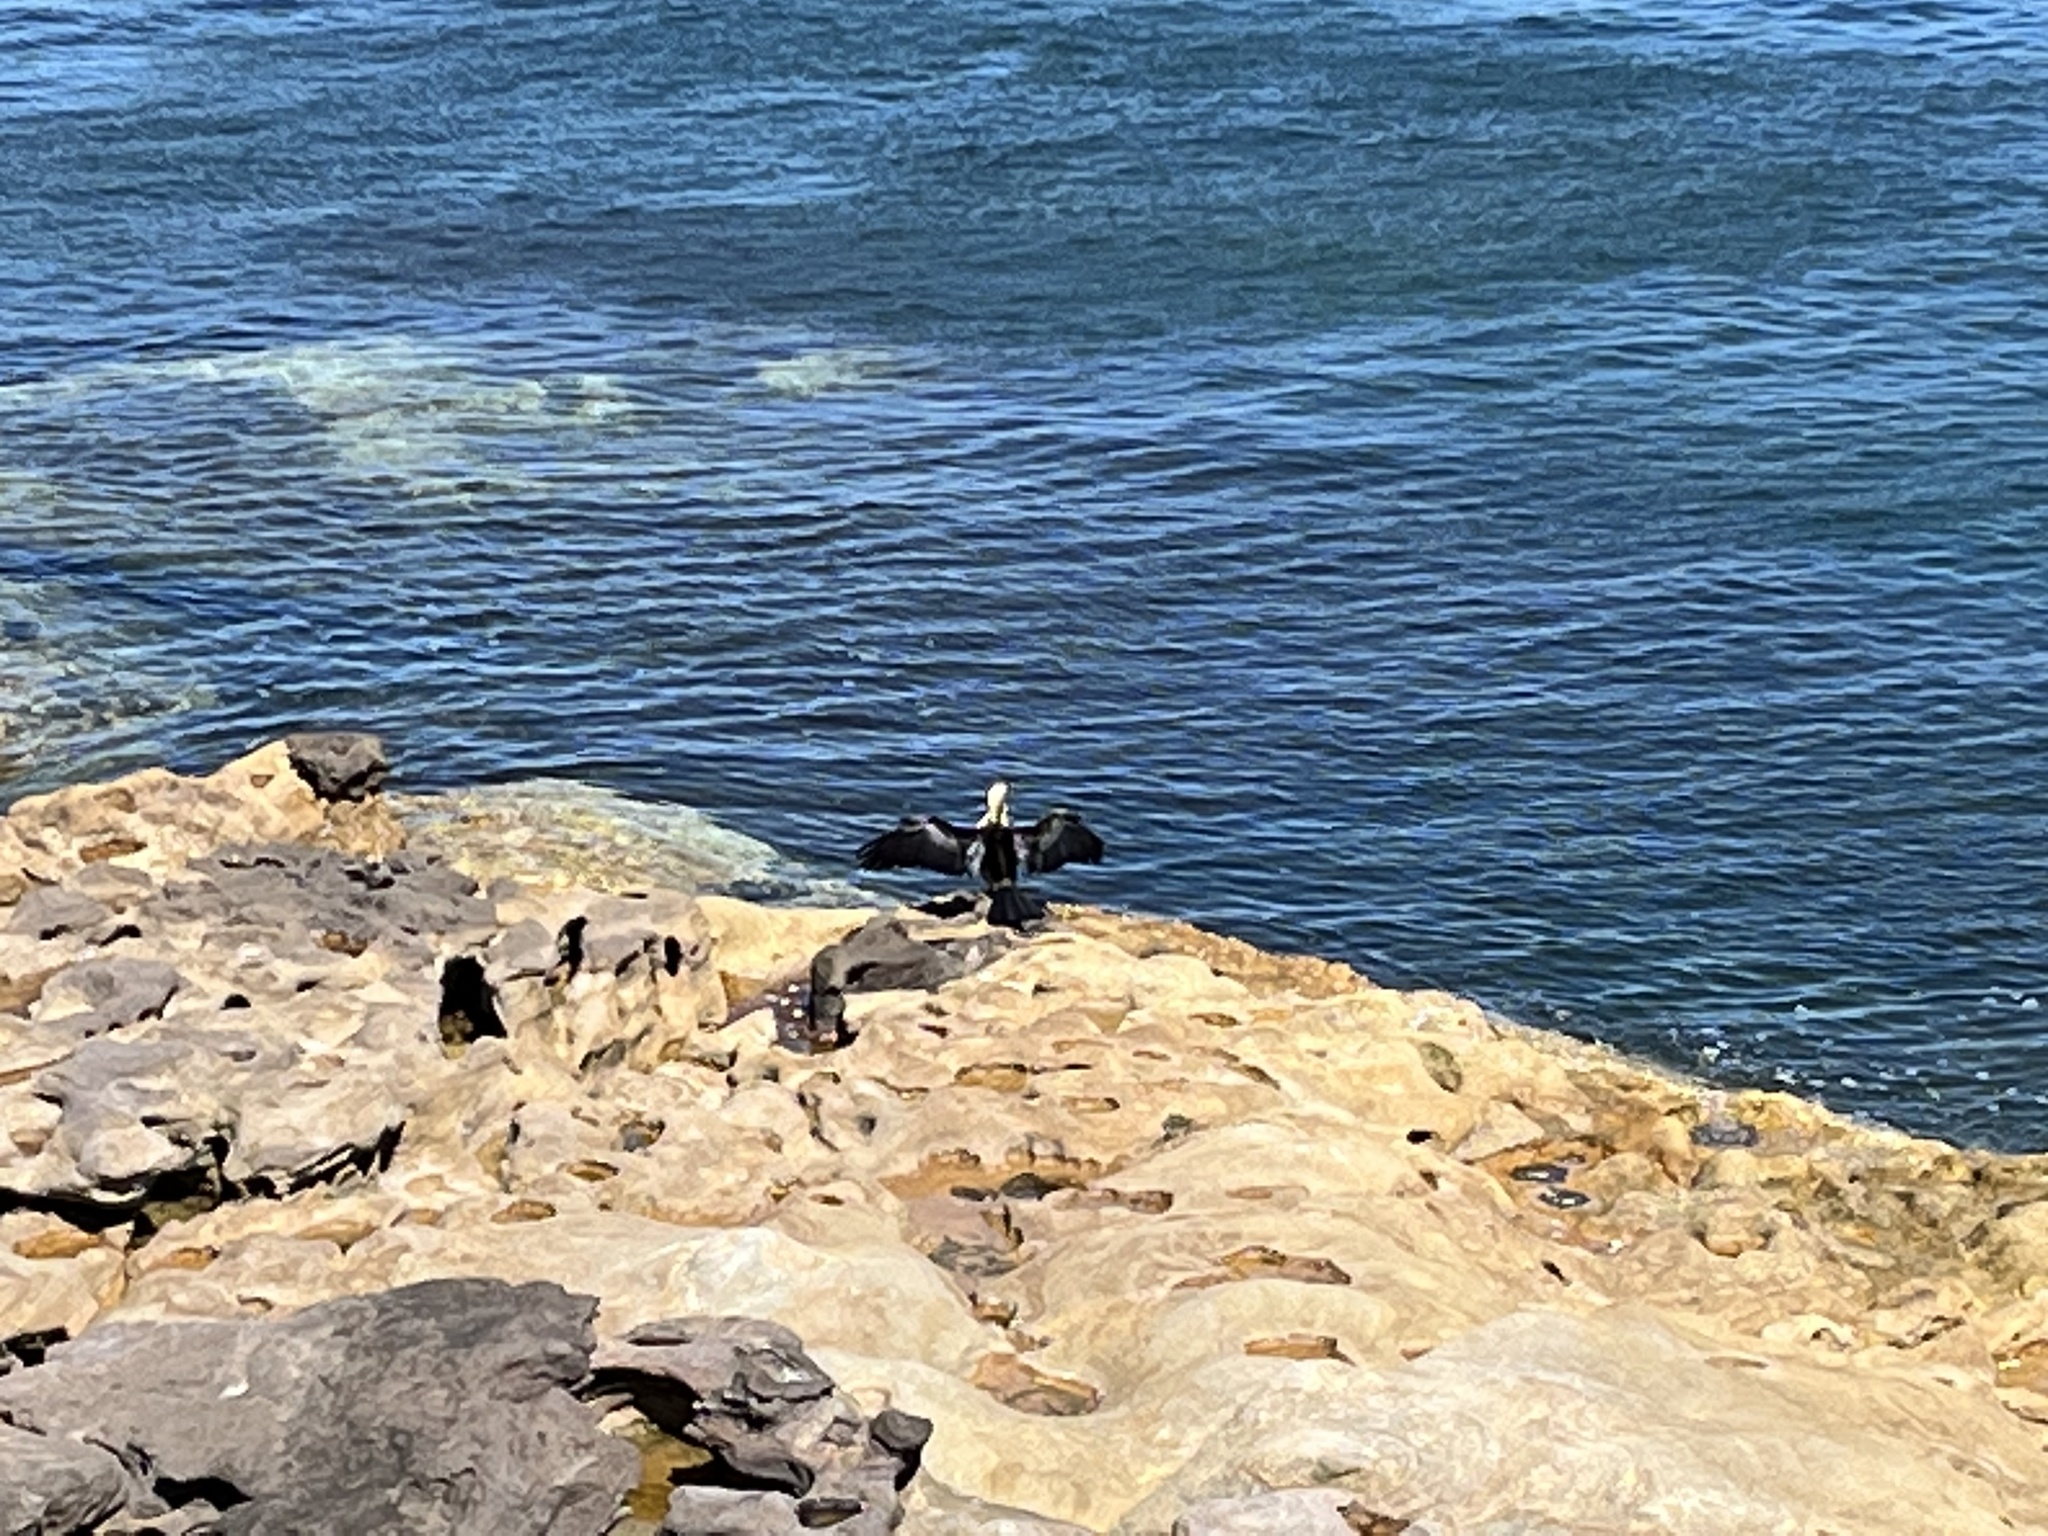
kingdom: Animalia
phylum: Chordata
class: Aves
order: Suliformes
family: Anhingidae
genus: Anhinga
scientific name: Anhinga novaehollandiae
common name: Australasian darter
